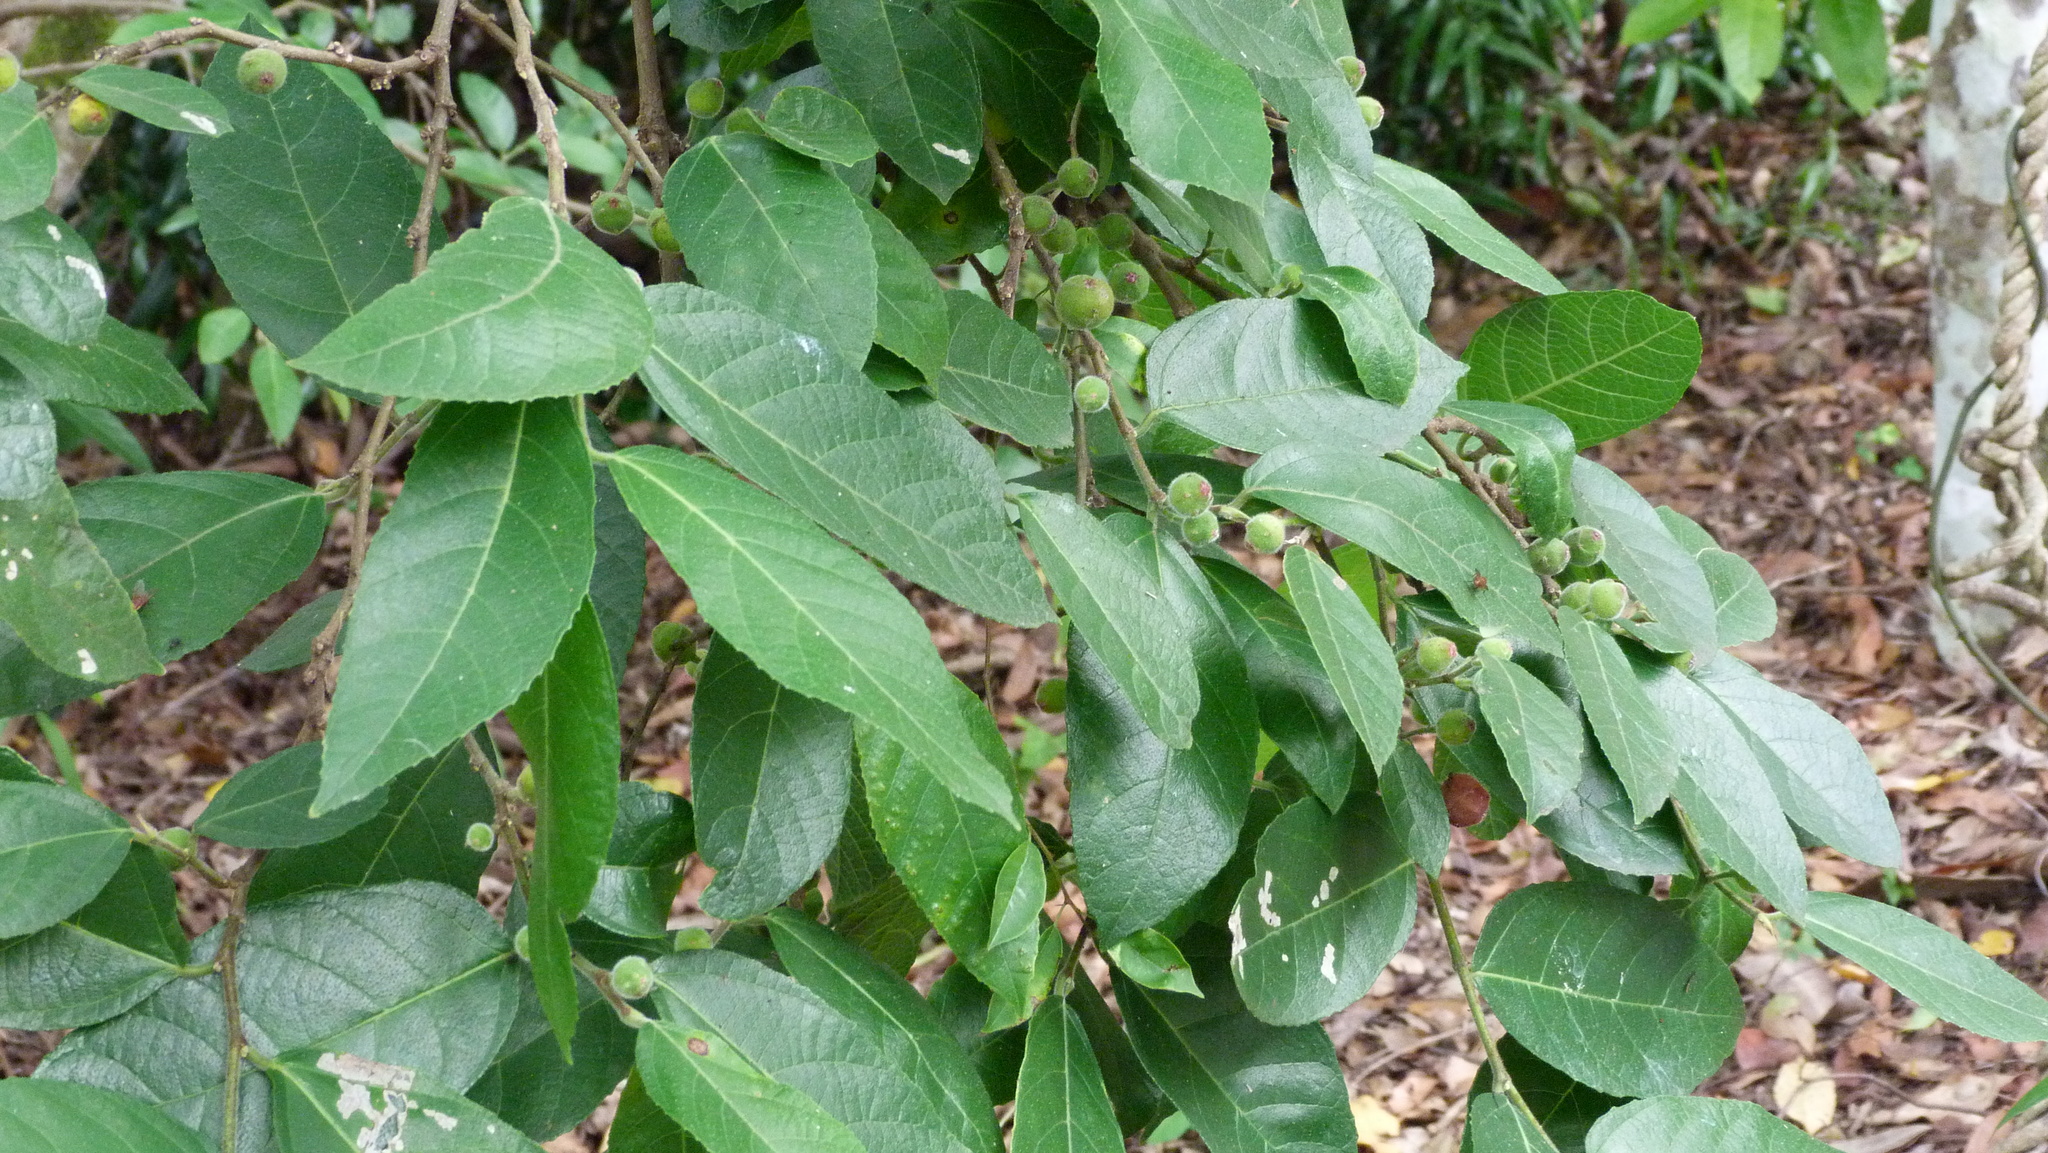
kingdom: Plantae
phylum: Tracheophyta
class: Magnoliopsida
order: Rosales
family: Moraceae
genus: Ficus
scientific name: Ficus coronata
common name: Creek sandpaper fig
